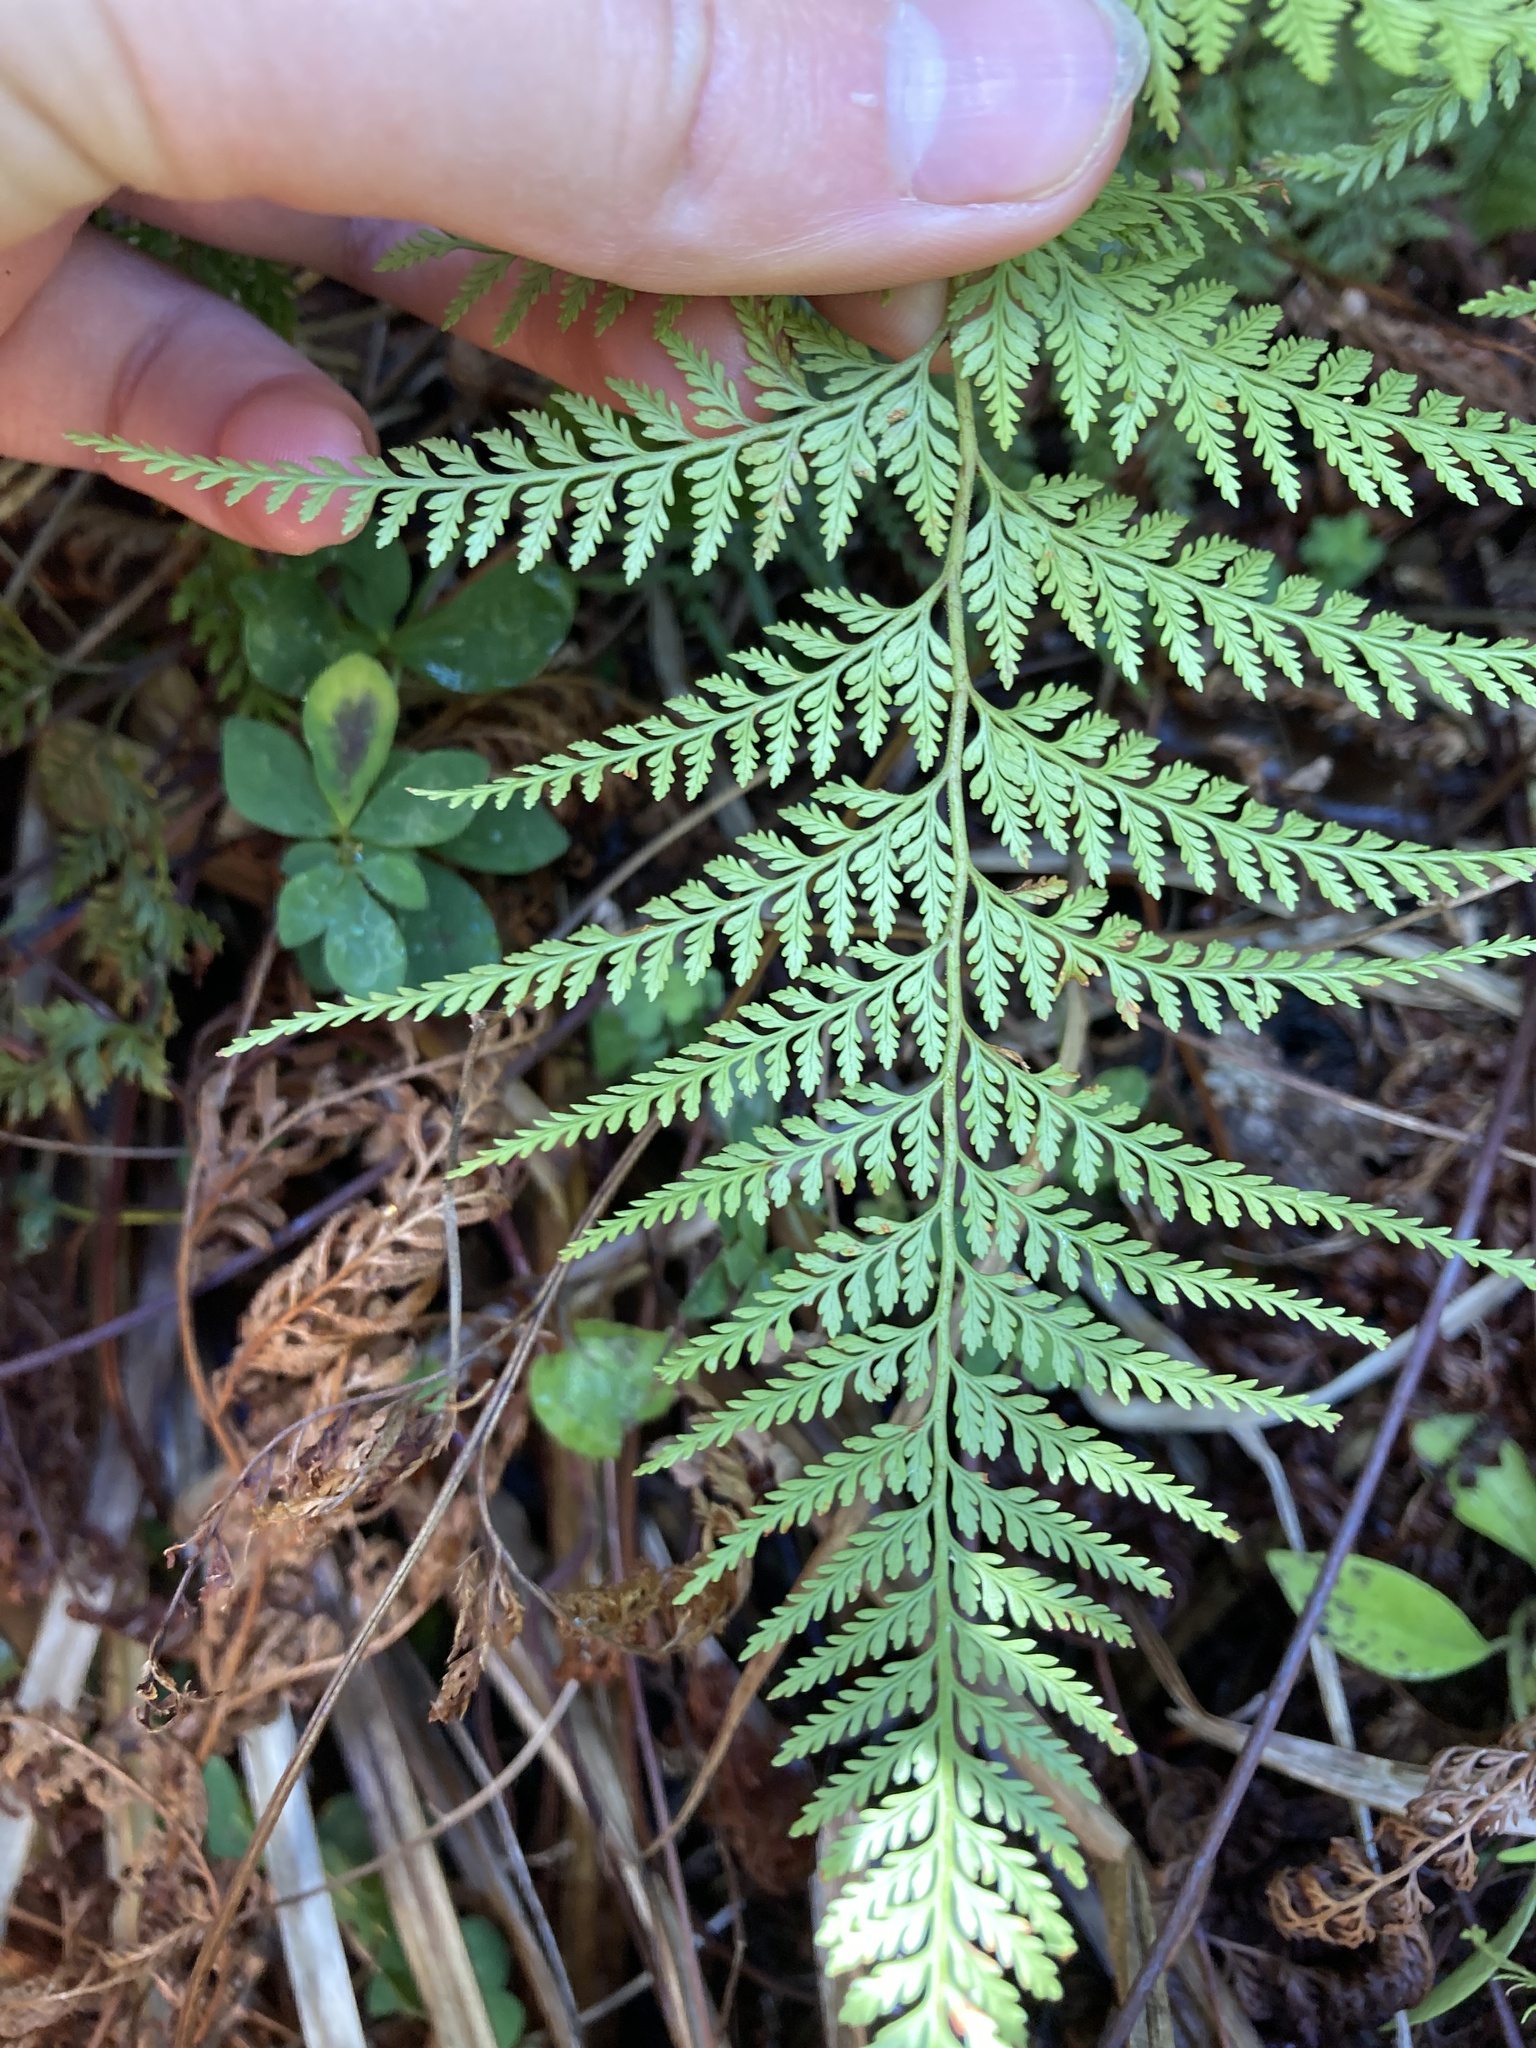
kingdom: Plantae
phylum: Tracheophyta
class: Polypodiopsida
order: Polypodiales
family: Dennstaedtiaceae
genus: Paesia
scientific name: Paesia scaberula
